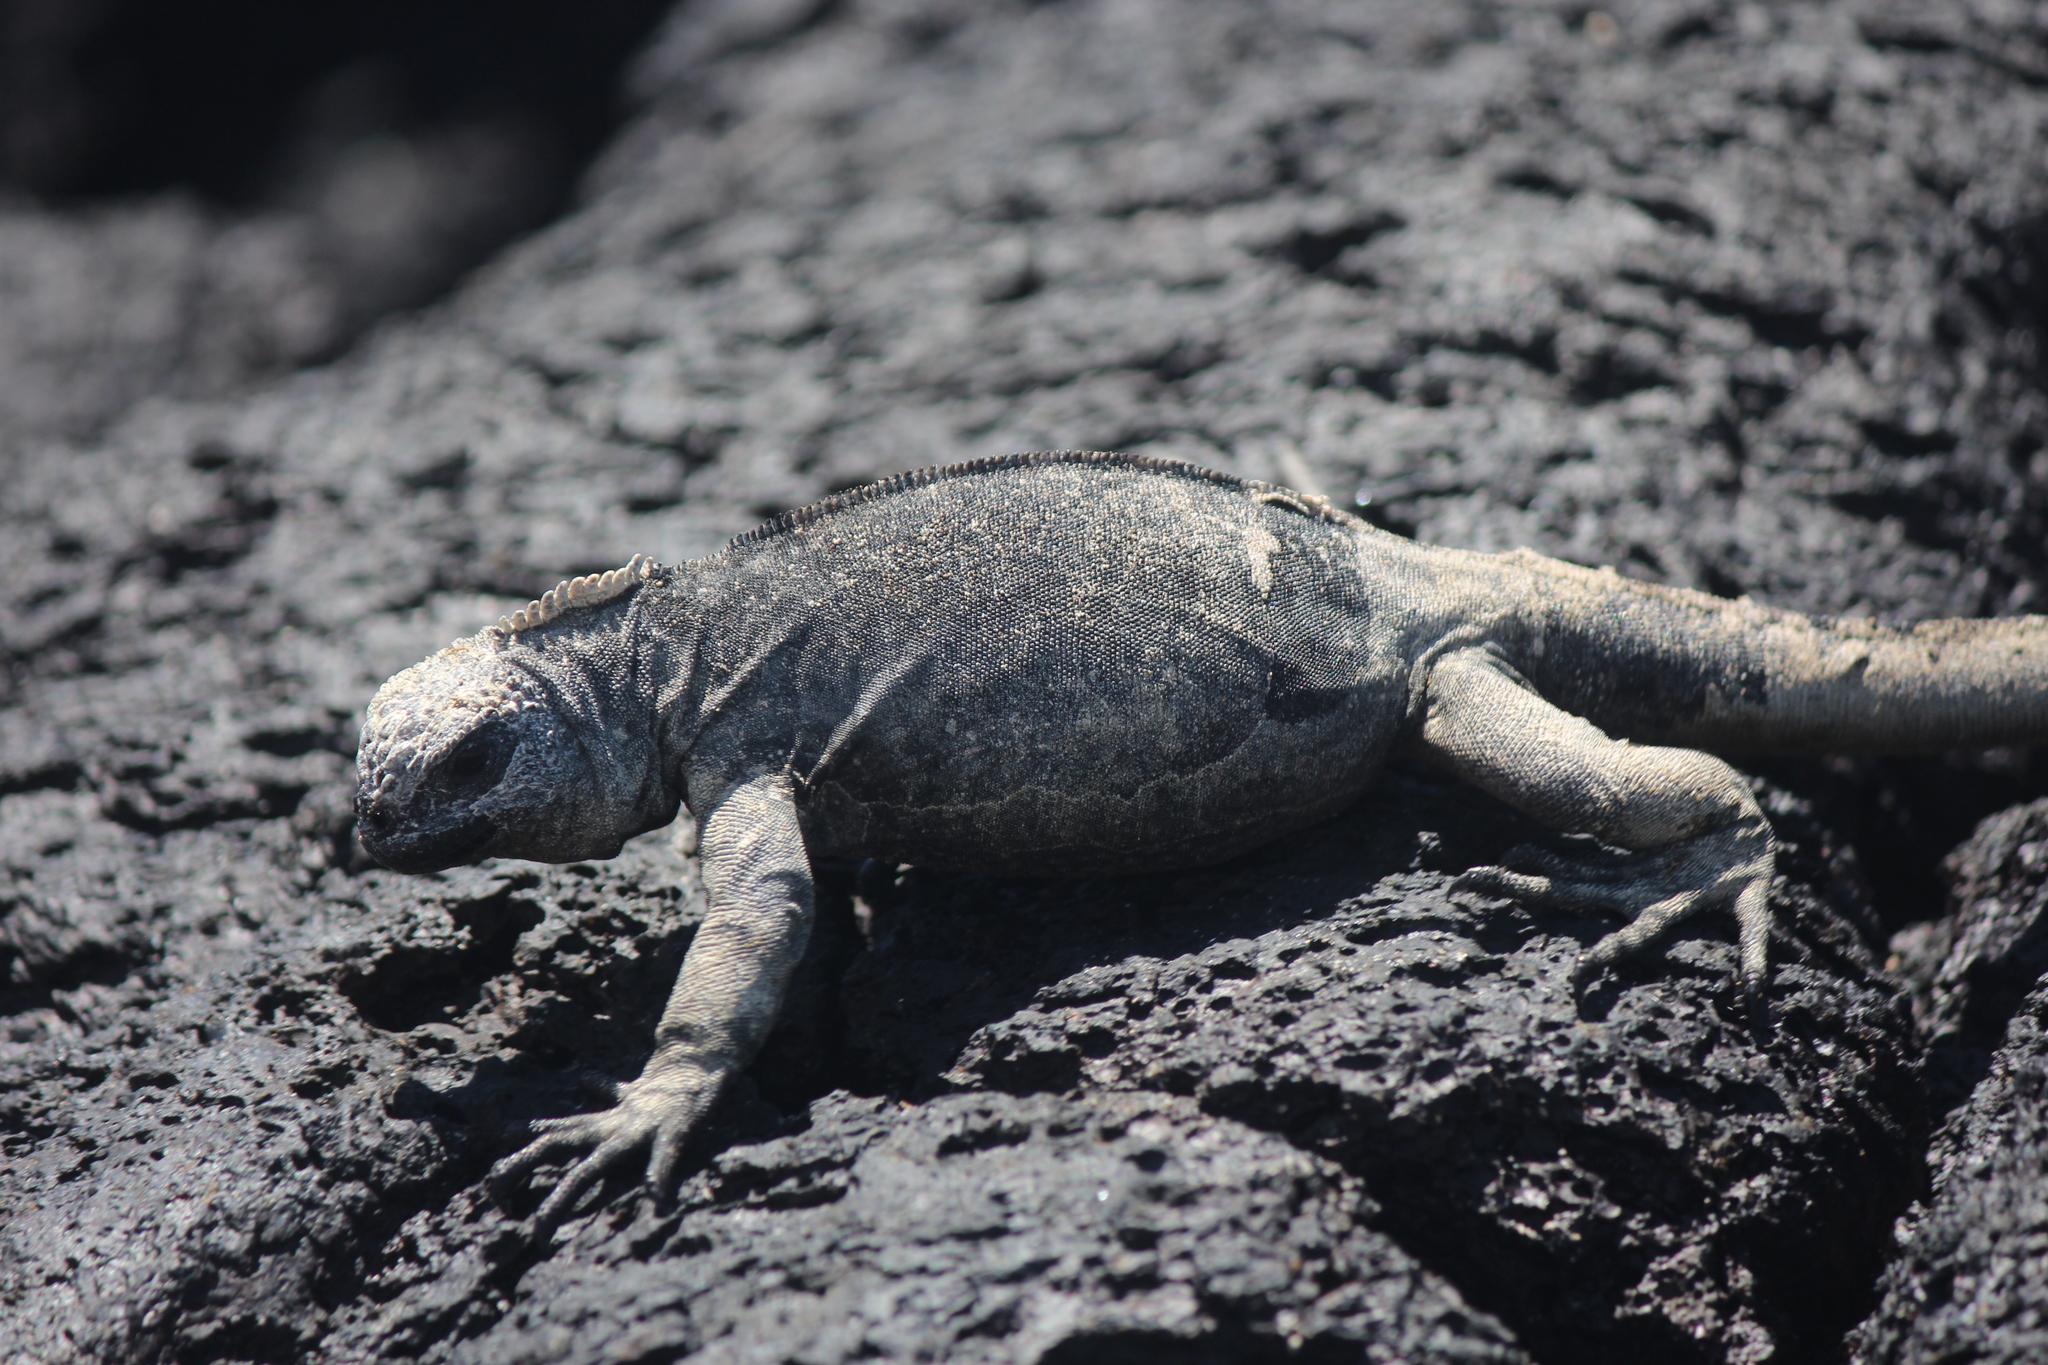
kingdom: Animalia
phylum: Chordata
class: Squamata
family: Iguanidae
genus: Amblyrhynchus
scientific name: Amblyrhynchus cristatus
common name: Marine iguana
